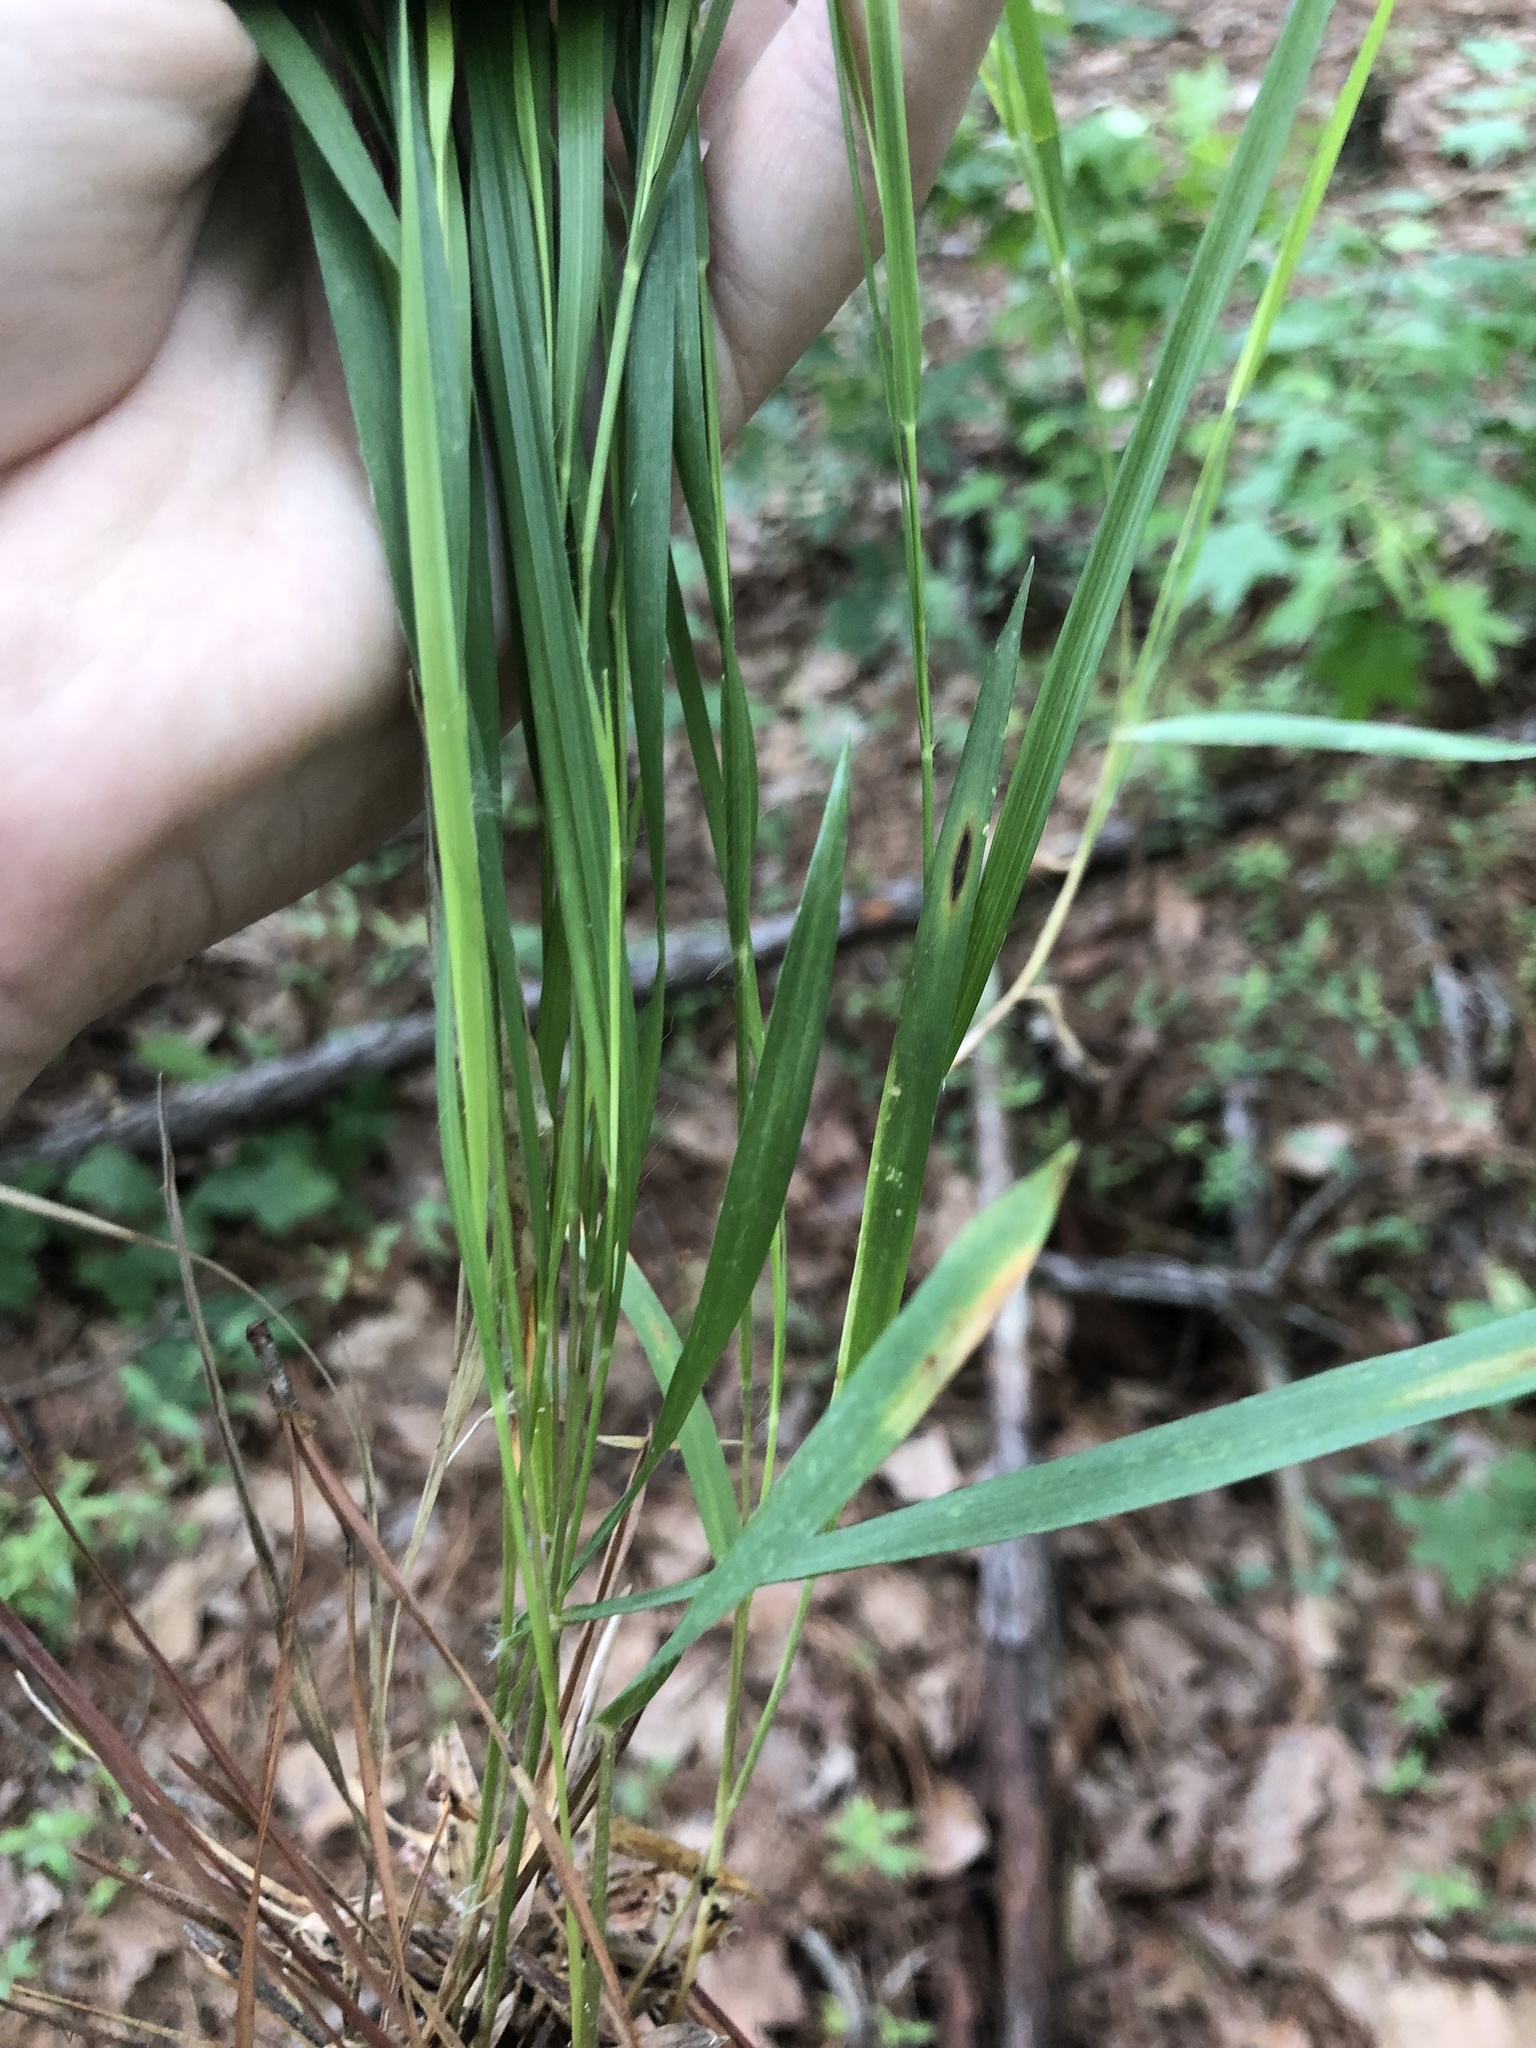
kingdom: Plantae
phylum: Tracheophyta
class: Liliopsida
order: Poales
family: Poaceae
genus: Dichanthelium
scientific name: Dichanthelium angustifolium
